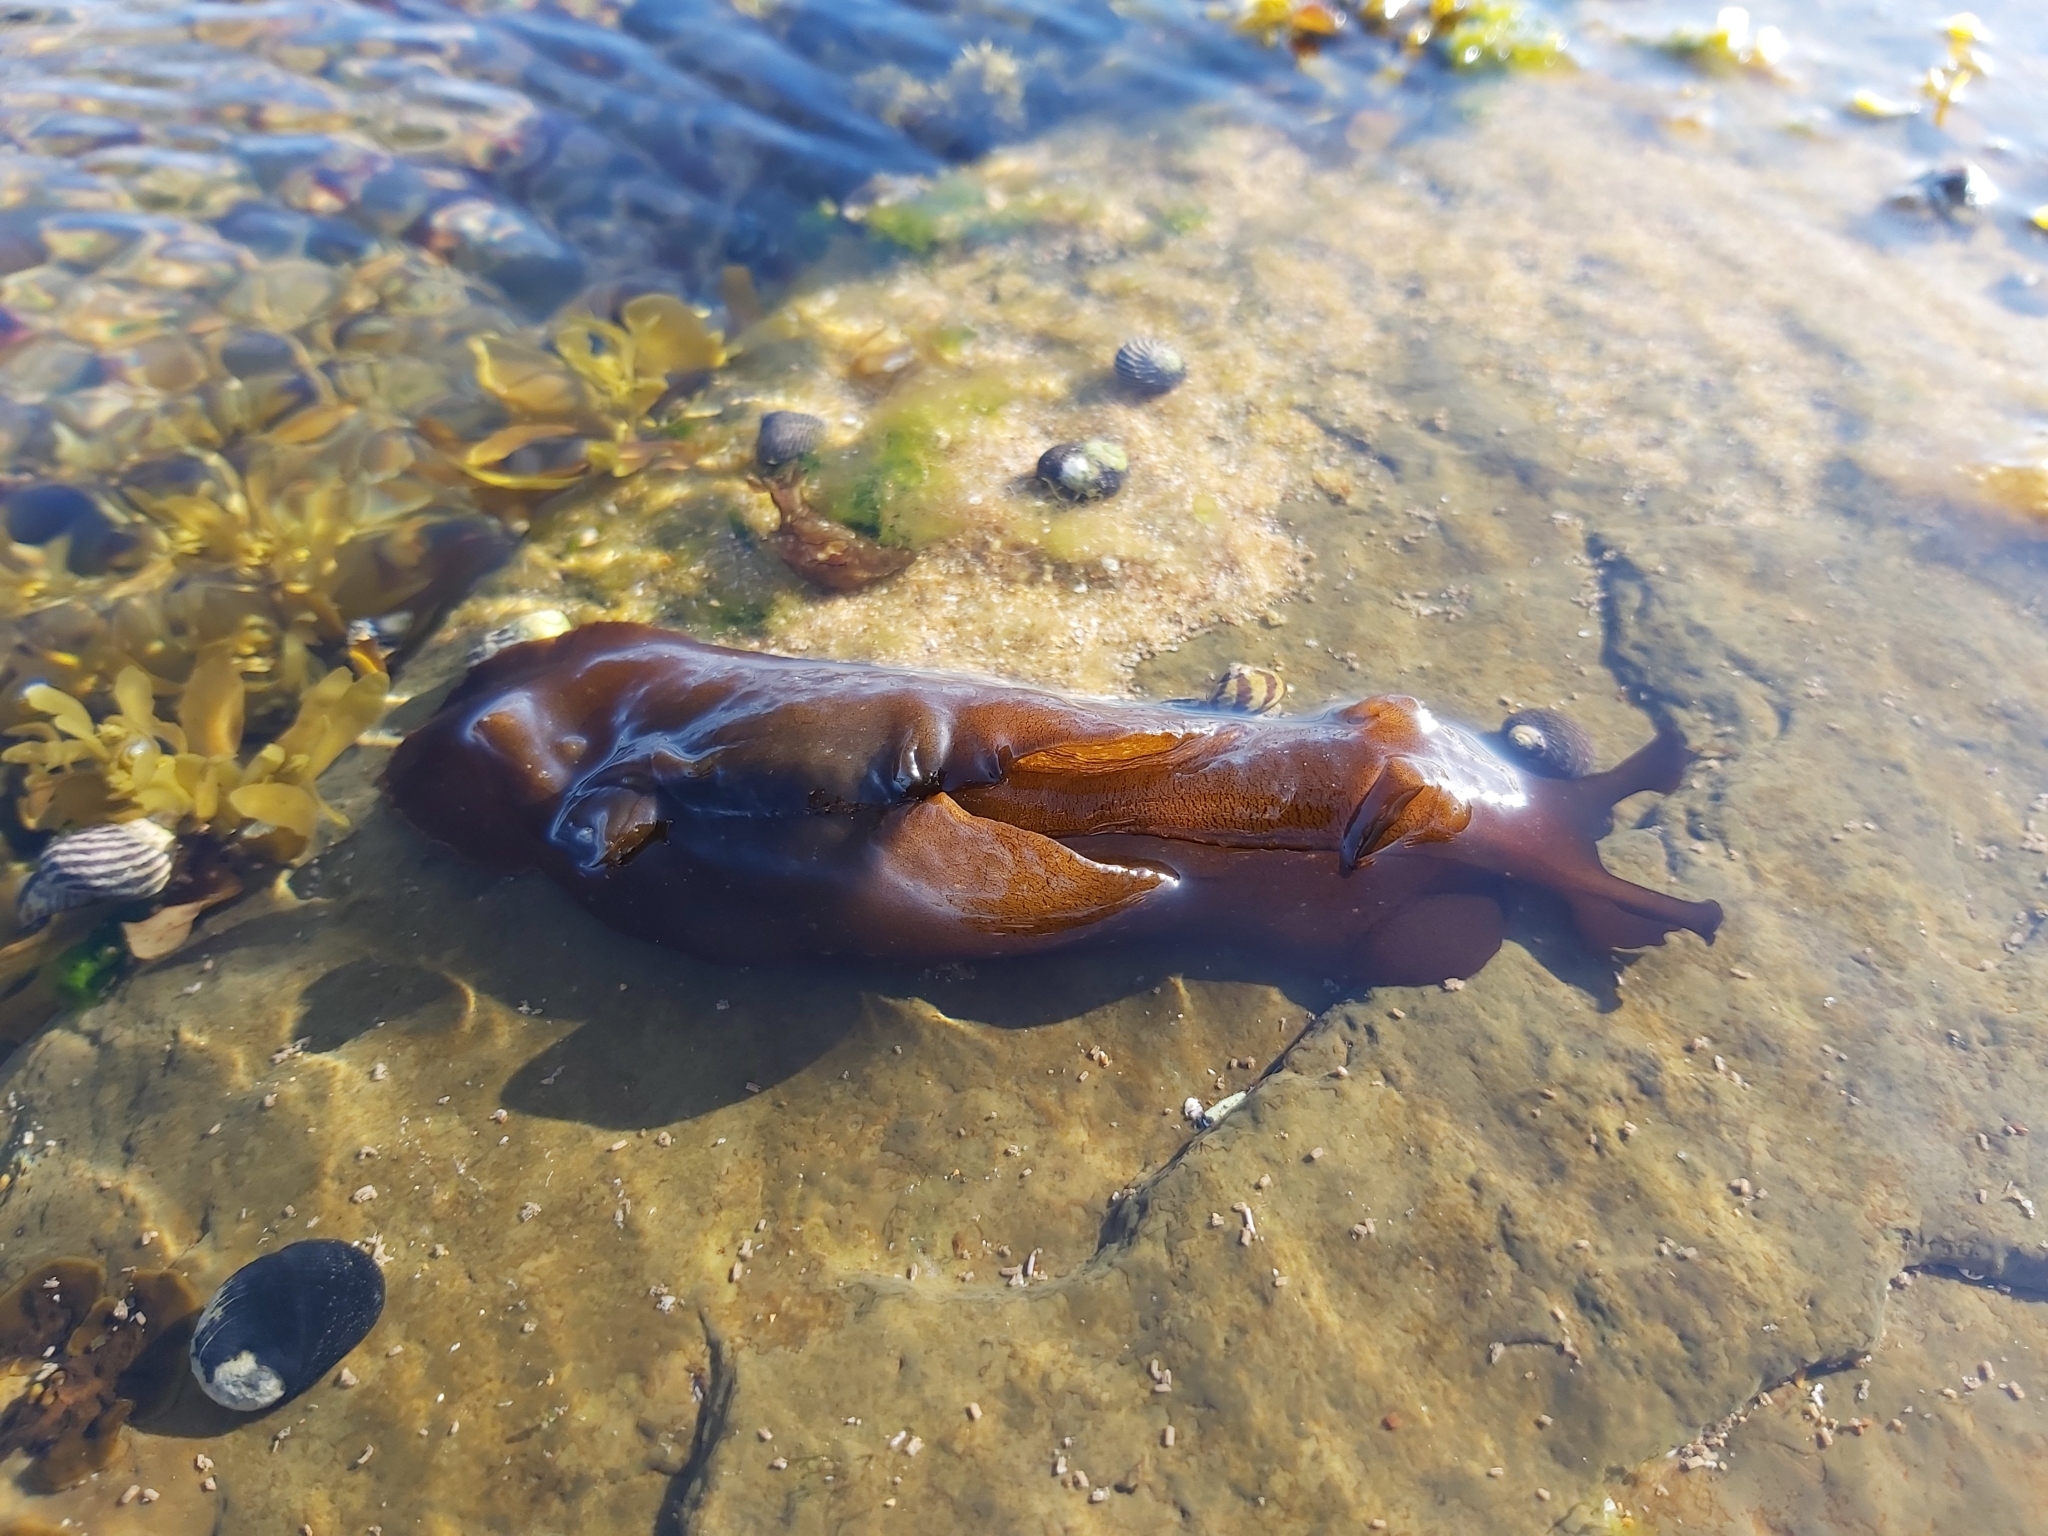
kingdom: Animalia
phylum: Mollusca
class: Gastropoda
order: Aplysiida
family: Aplysiidae
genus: Aplysia
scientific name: Aplysia juliana
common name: Walking sea hare
